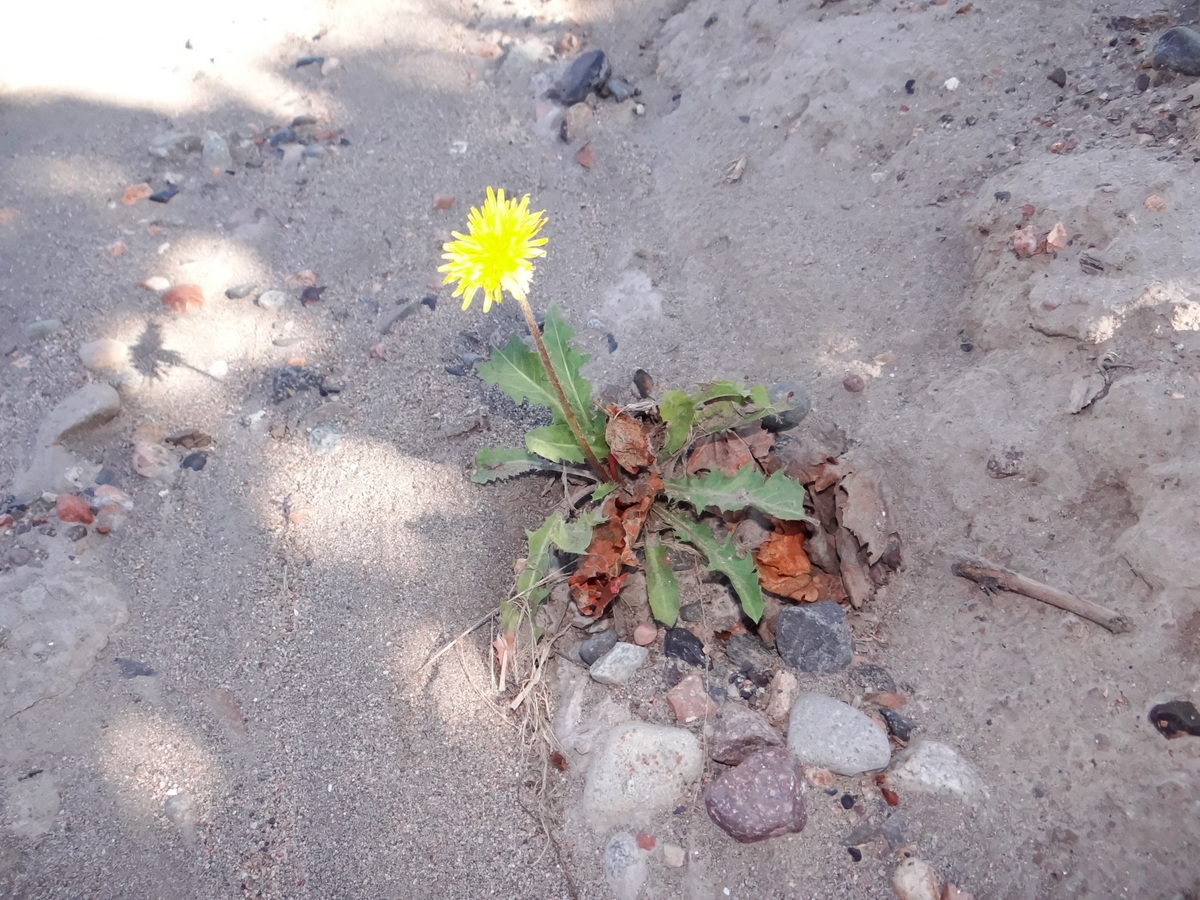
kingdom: Plantae
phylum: Tracheophyta
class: Magnoliopsida
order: Asterales
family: Asteraceae
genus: Taraxacum
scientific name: Taraxacum officinale
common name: Common dandelion
